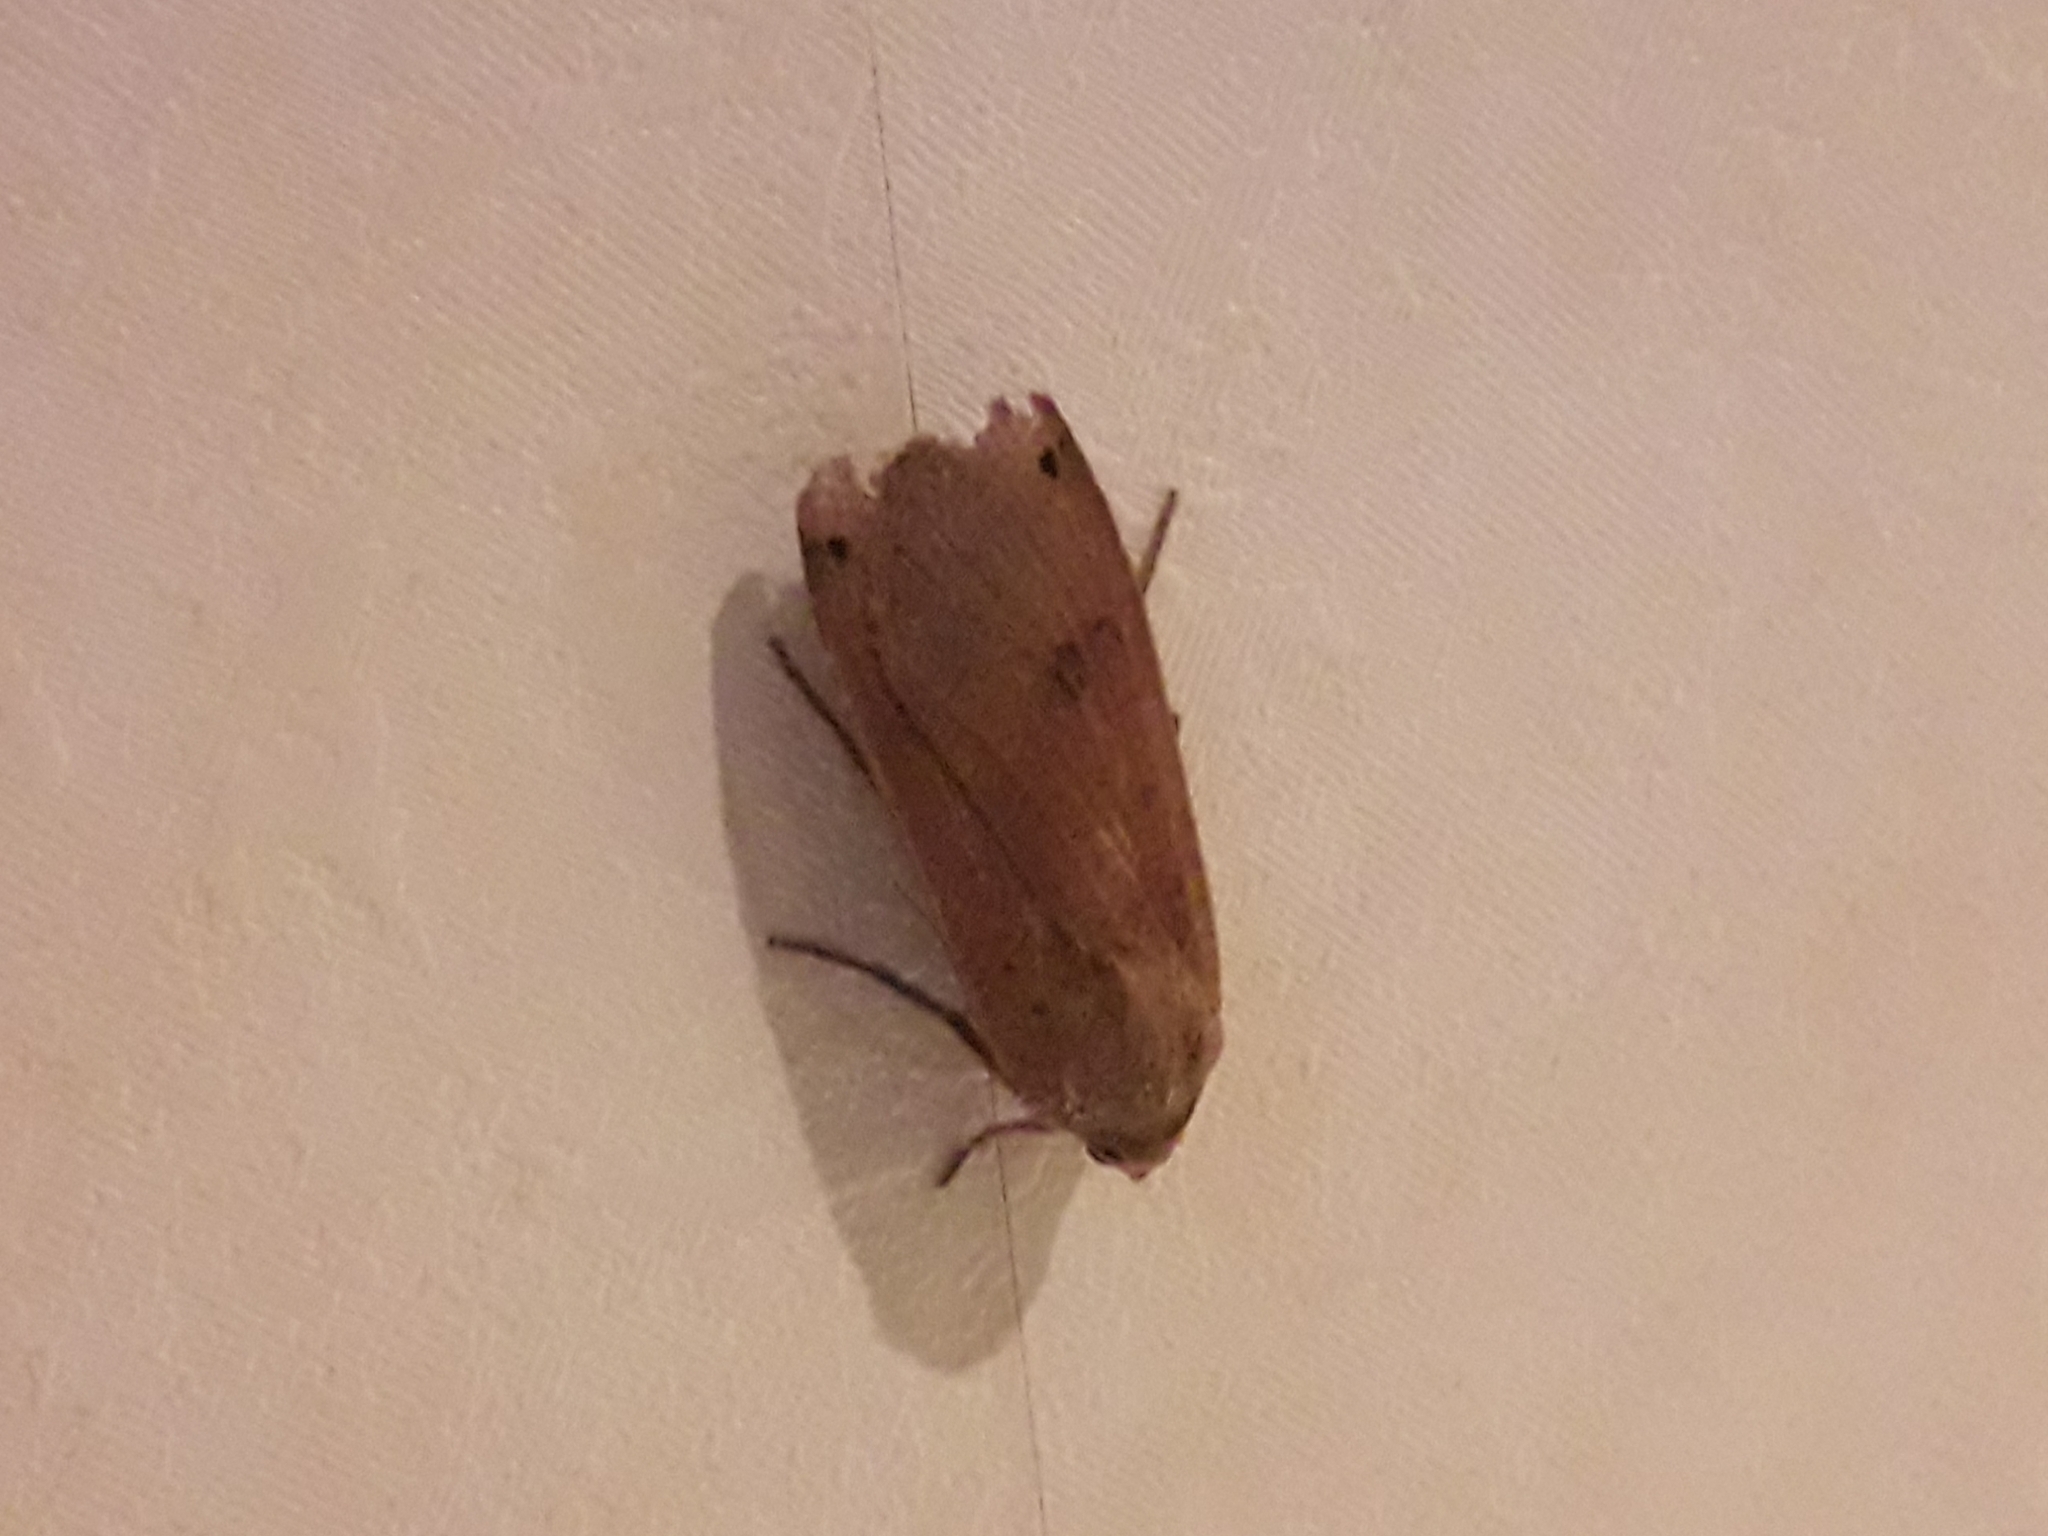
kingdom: Animalia
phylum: Arthropoda
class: Insecta
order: Lepidoptera
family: Noctuidae
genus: Noctua
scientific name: Noctua pronuba
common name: Large yellow underwing
